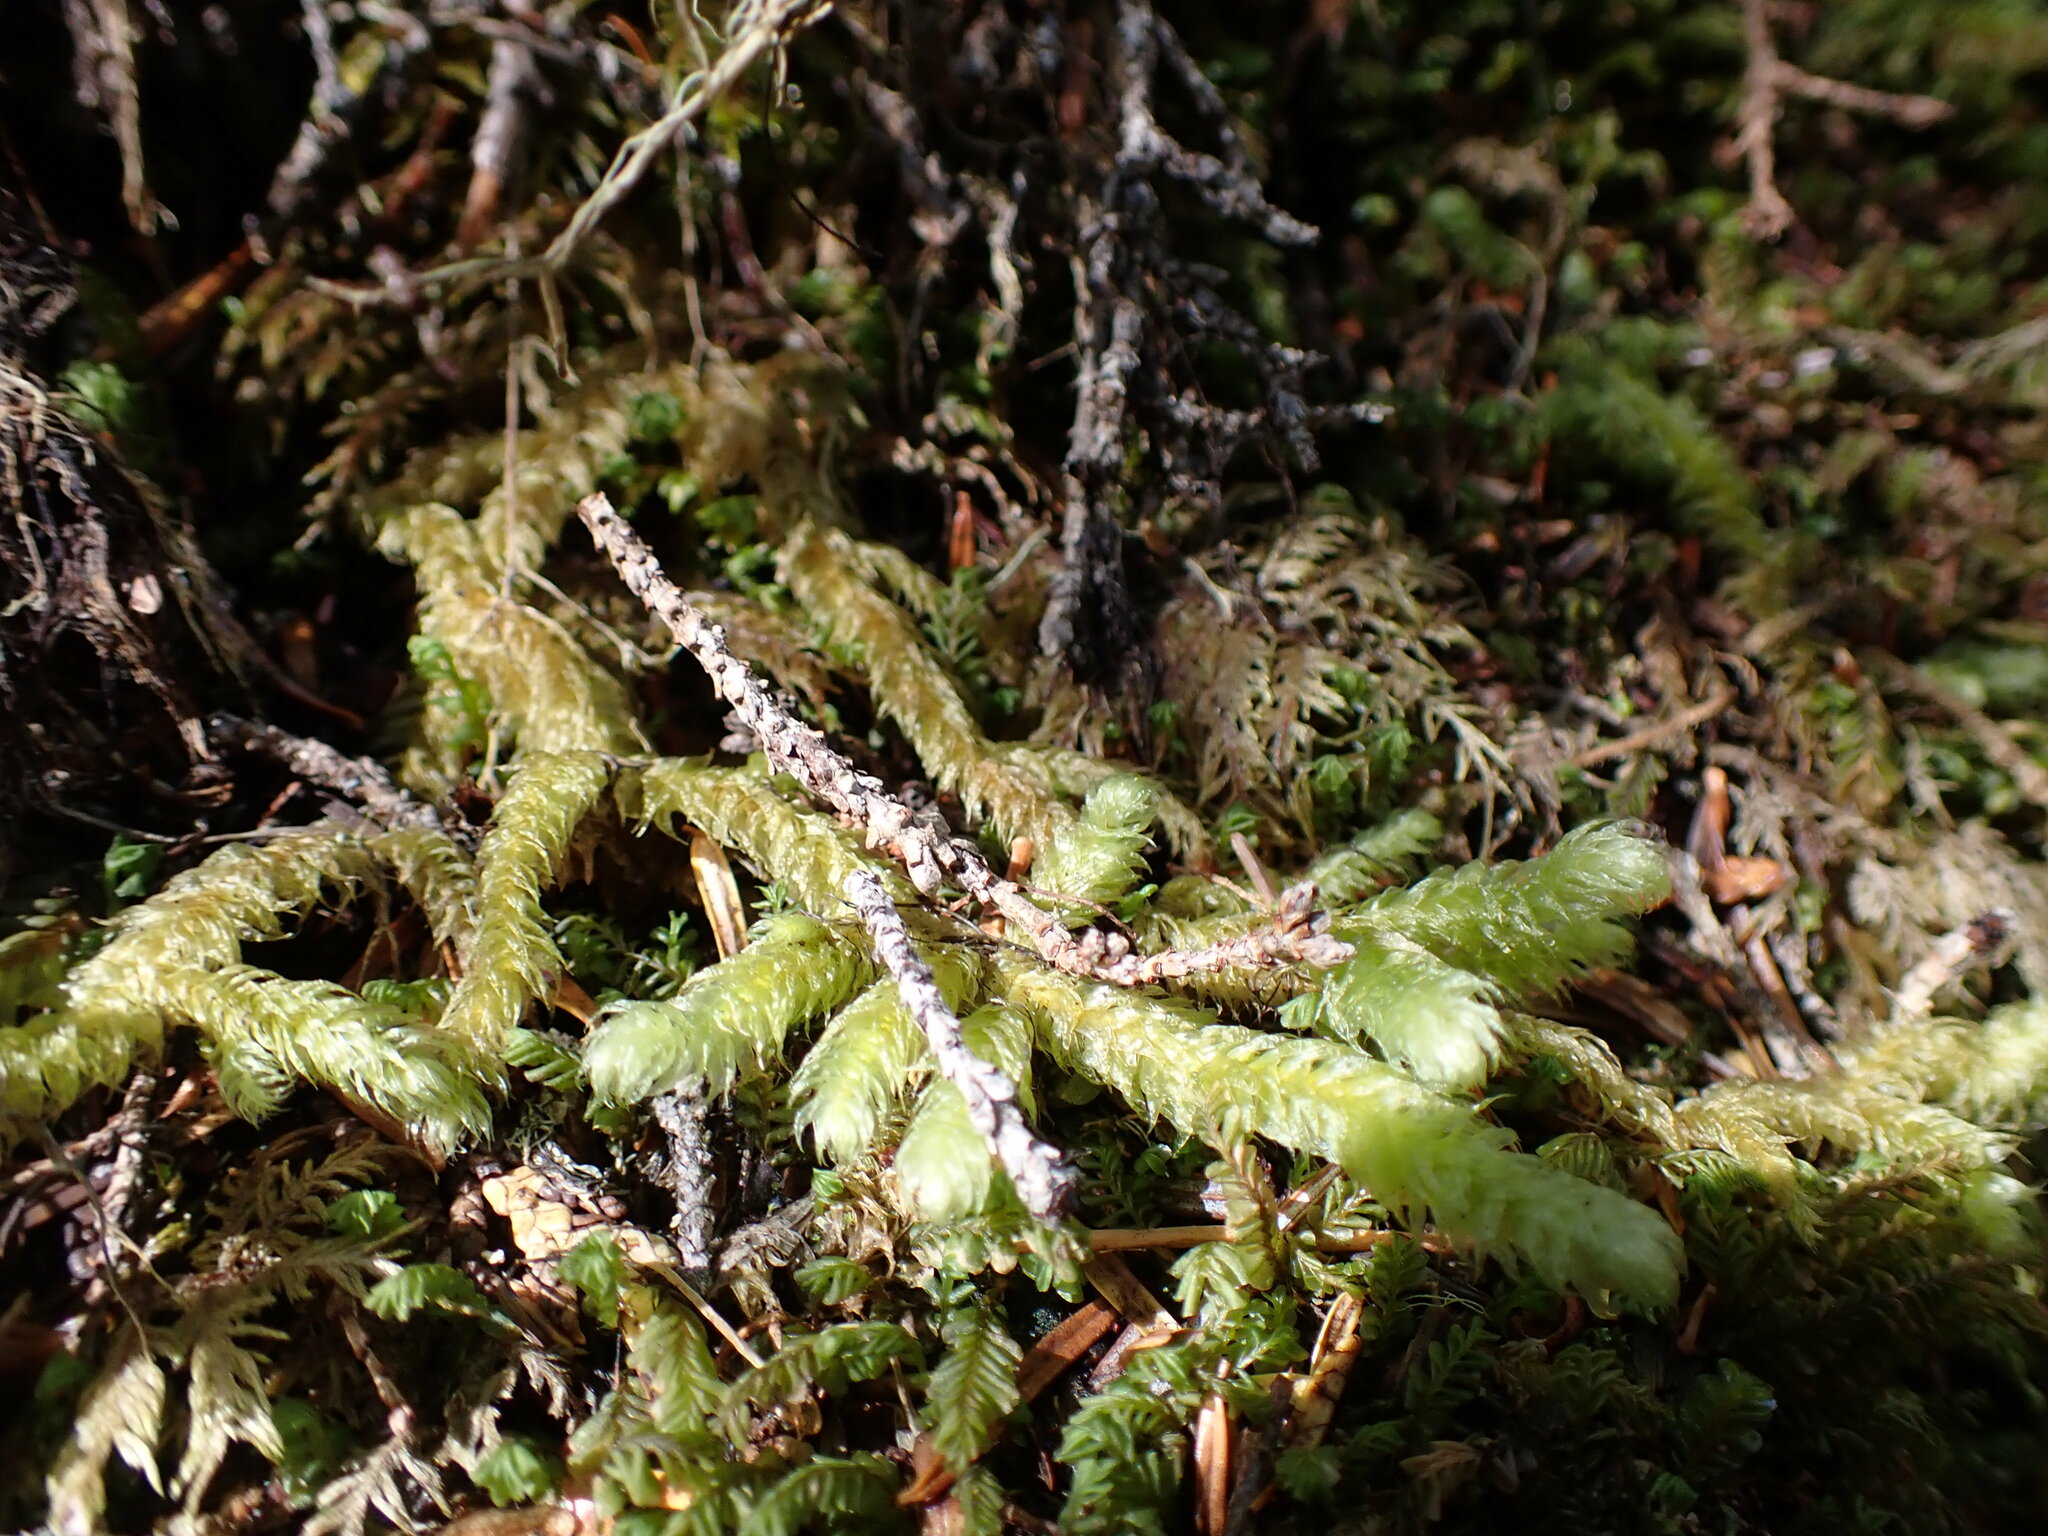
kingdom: Plantae
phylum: Bryophyta
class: Bryopsida
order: Hypnales
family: Hylocomiaceae
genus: Rhytidiopsis
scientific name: Rhytidiopsis robusta
